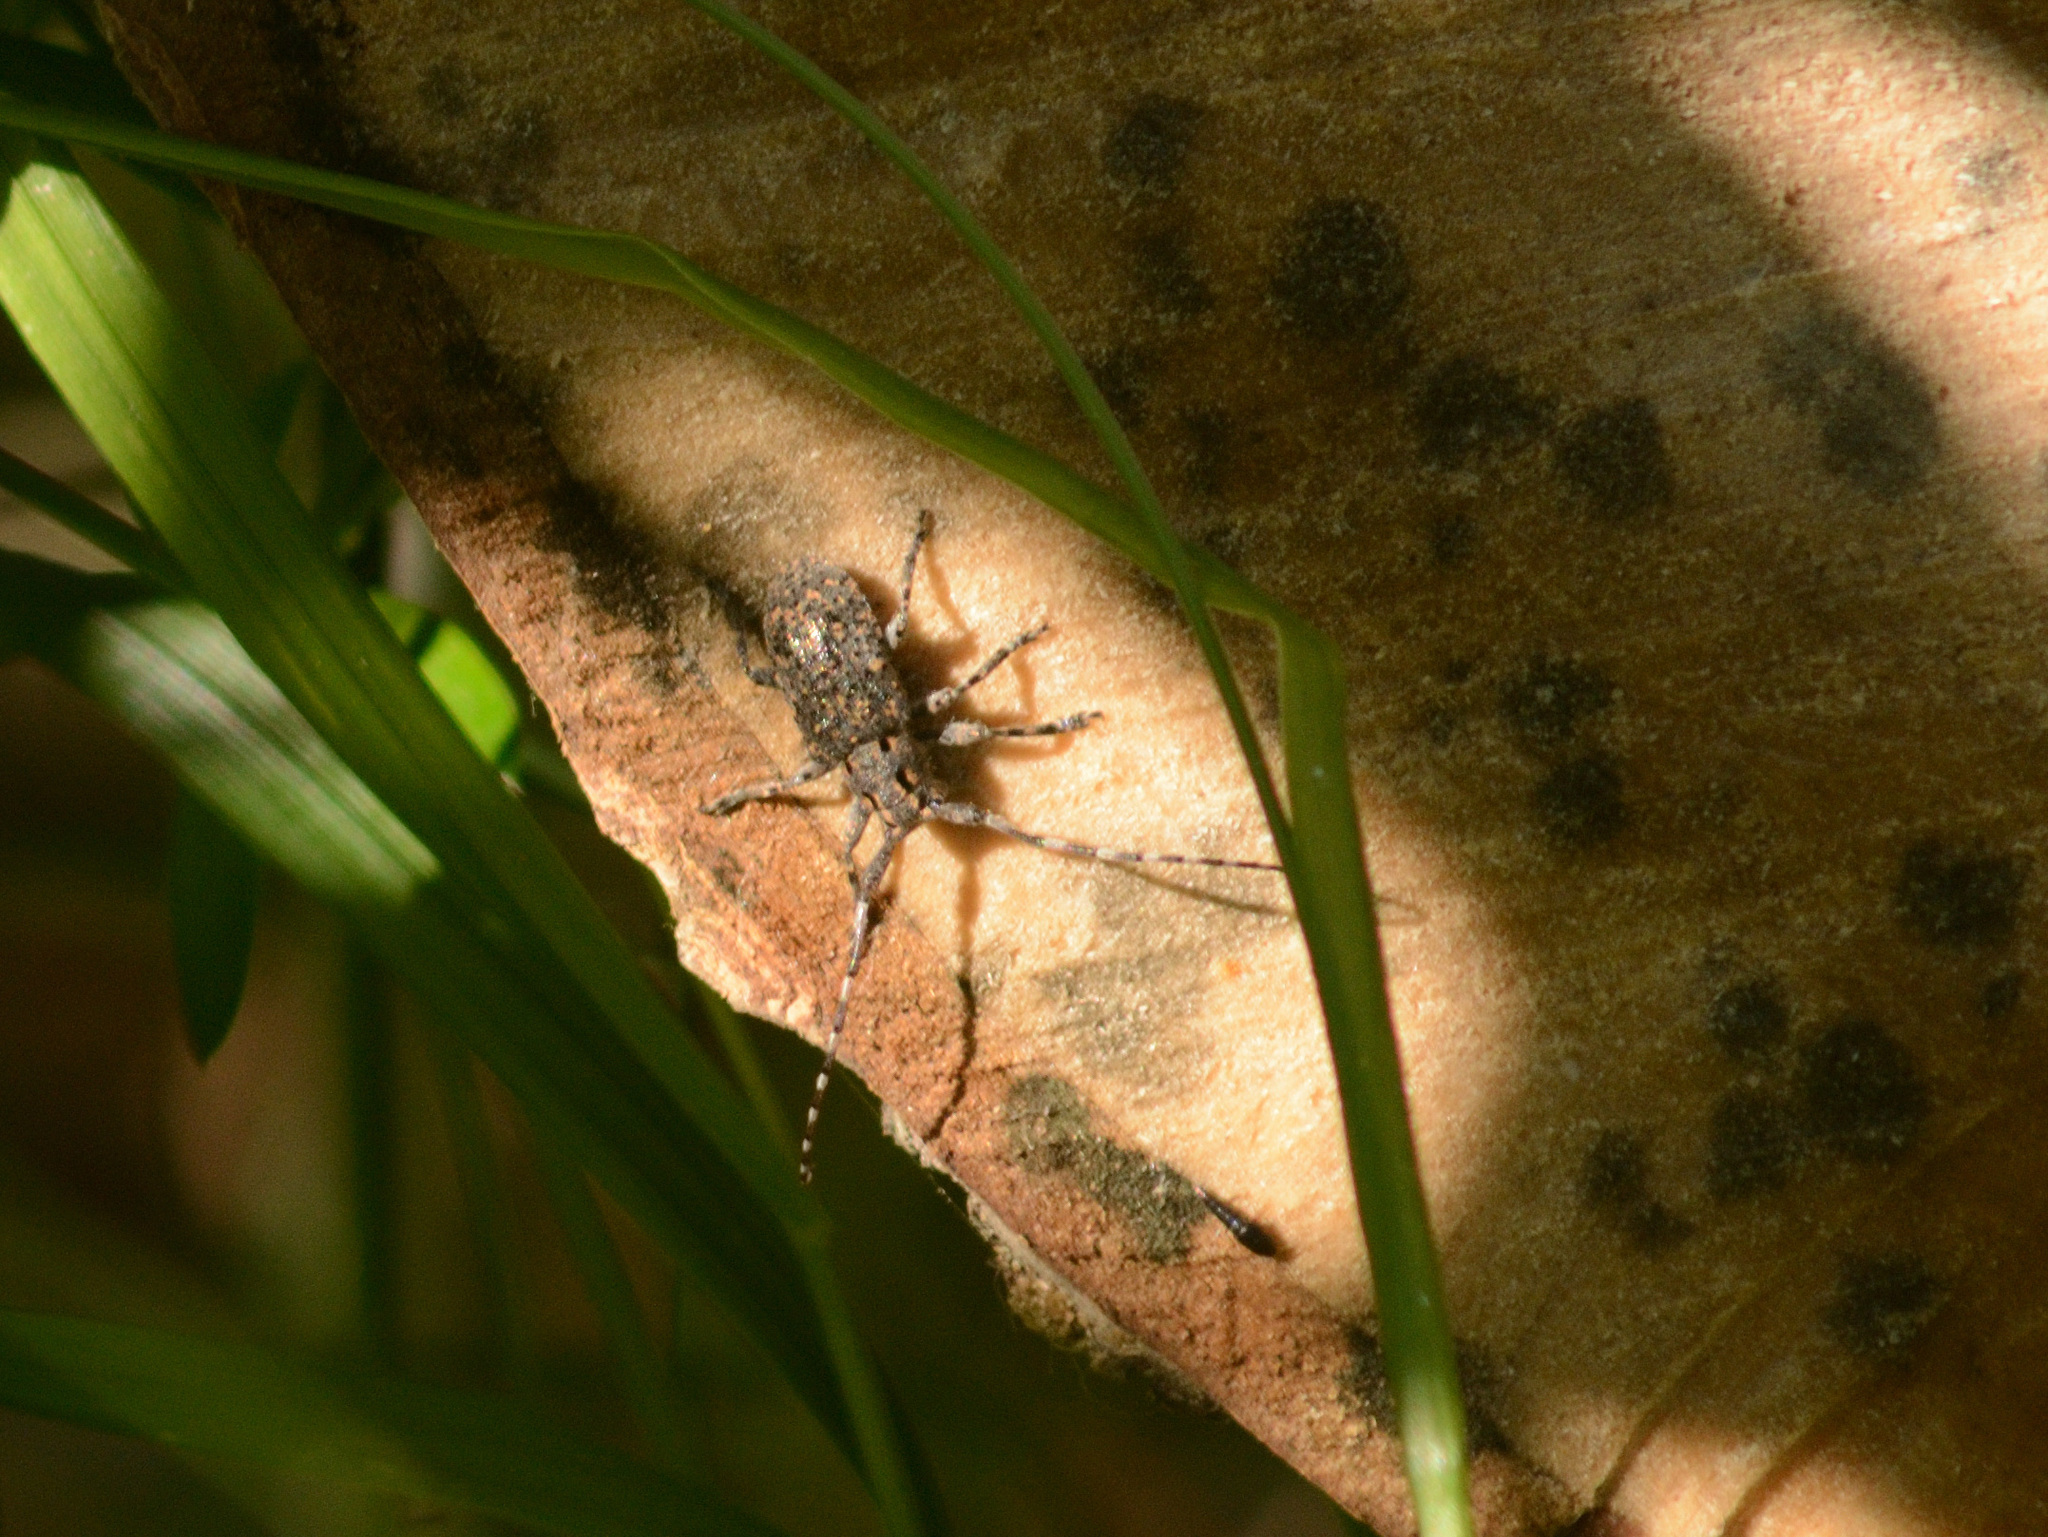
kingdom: Animalia
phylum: Arthropoda
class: Insecta
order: Coleoptera
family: Cerambycidae
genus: Mesosa
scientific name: Mesosa myops
